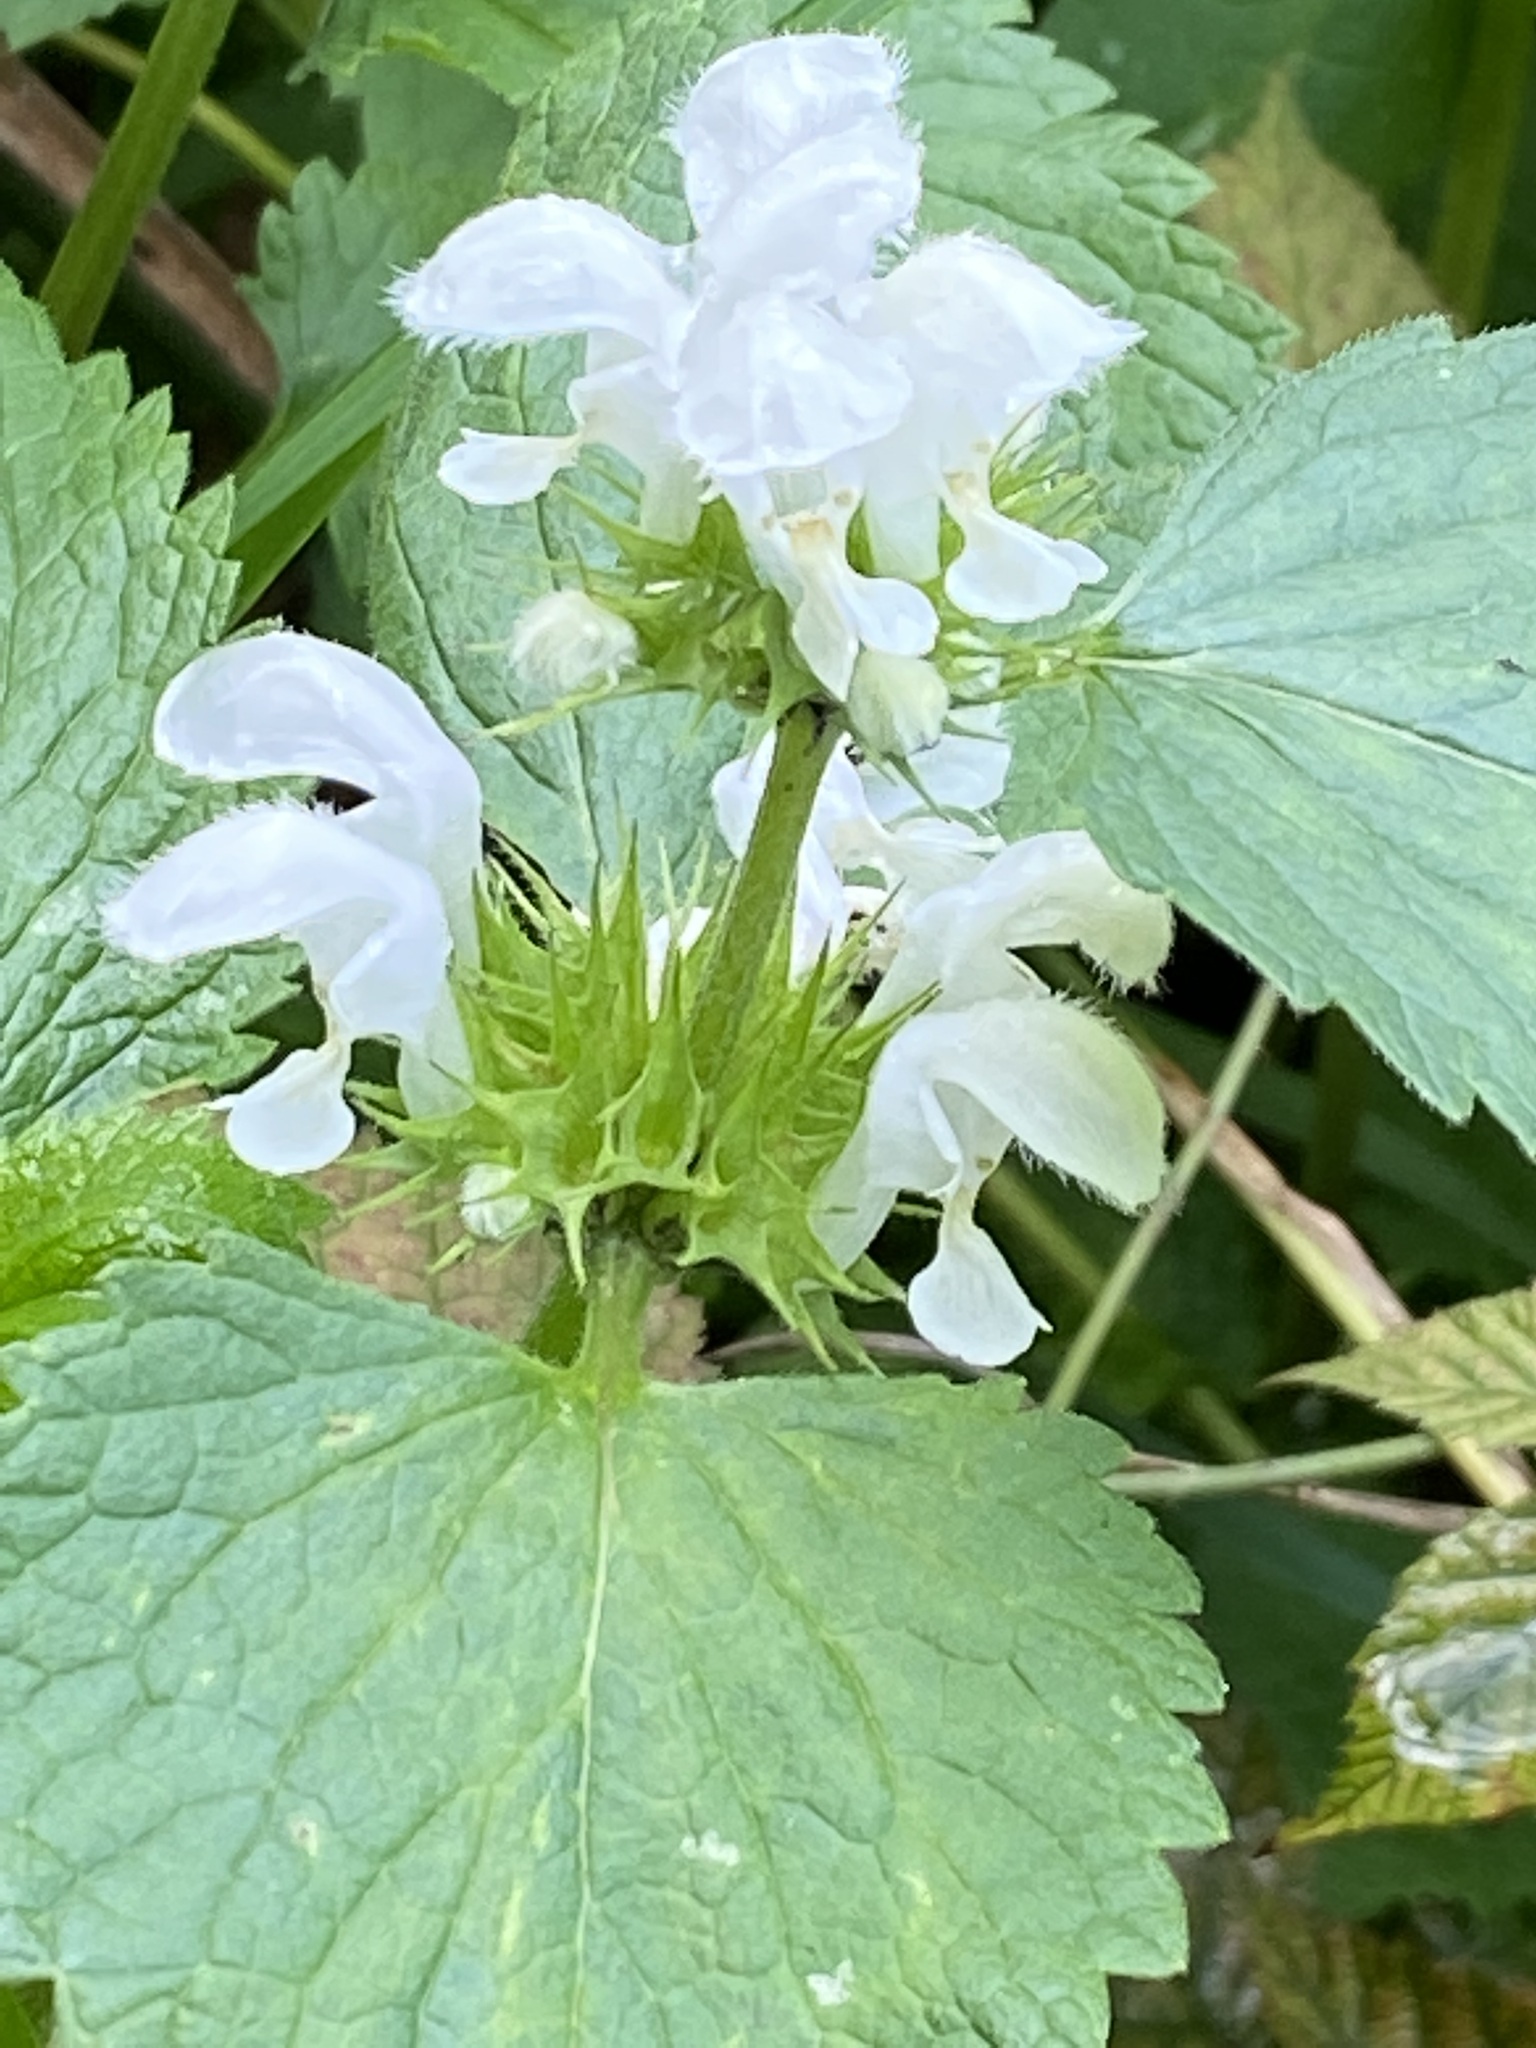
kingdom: Plantae
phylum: Tracheophyta
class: Magnoliopsida
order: Lamiales
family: Lamiaceae
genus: Lamium
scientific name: Lamium album
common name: White dead-nettle
